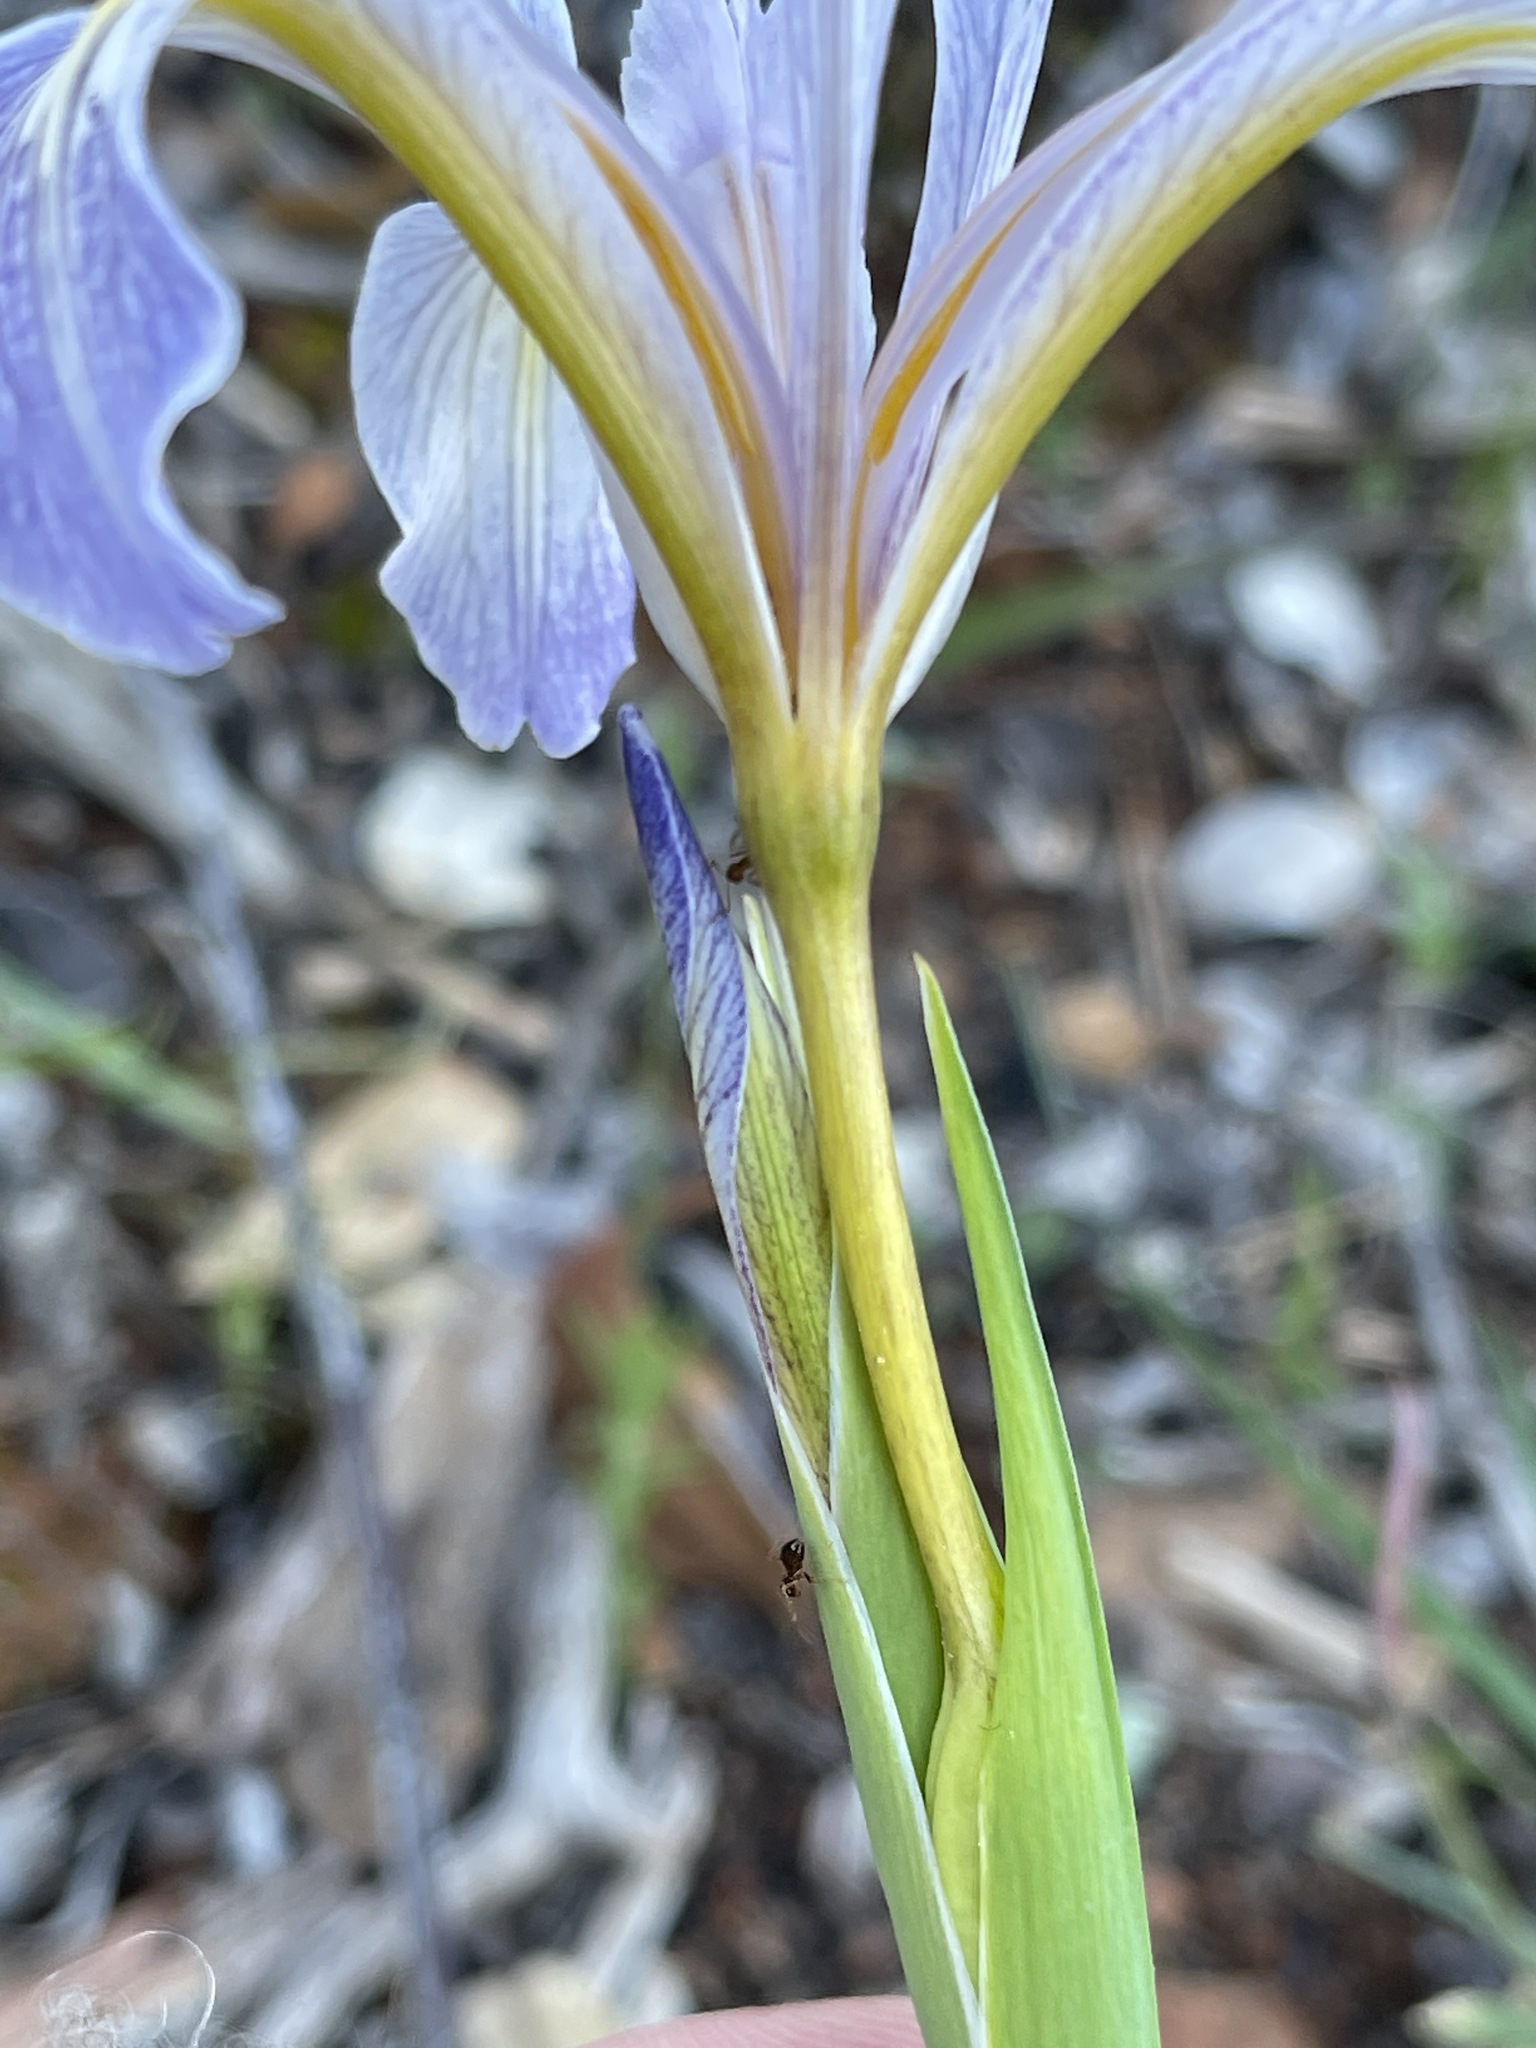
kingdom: Plantae
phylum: Tracheophyta
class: Liliopsida
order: Asparagales
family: Iridaceae
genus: Iris
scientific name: Iris macrosiphon
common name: Ground iris
